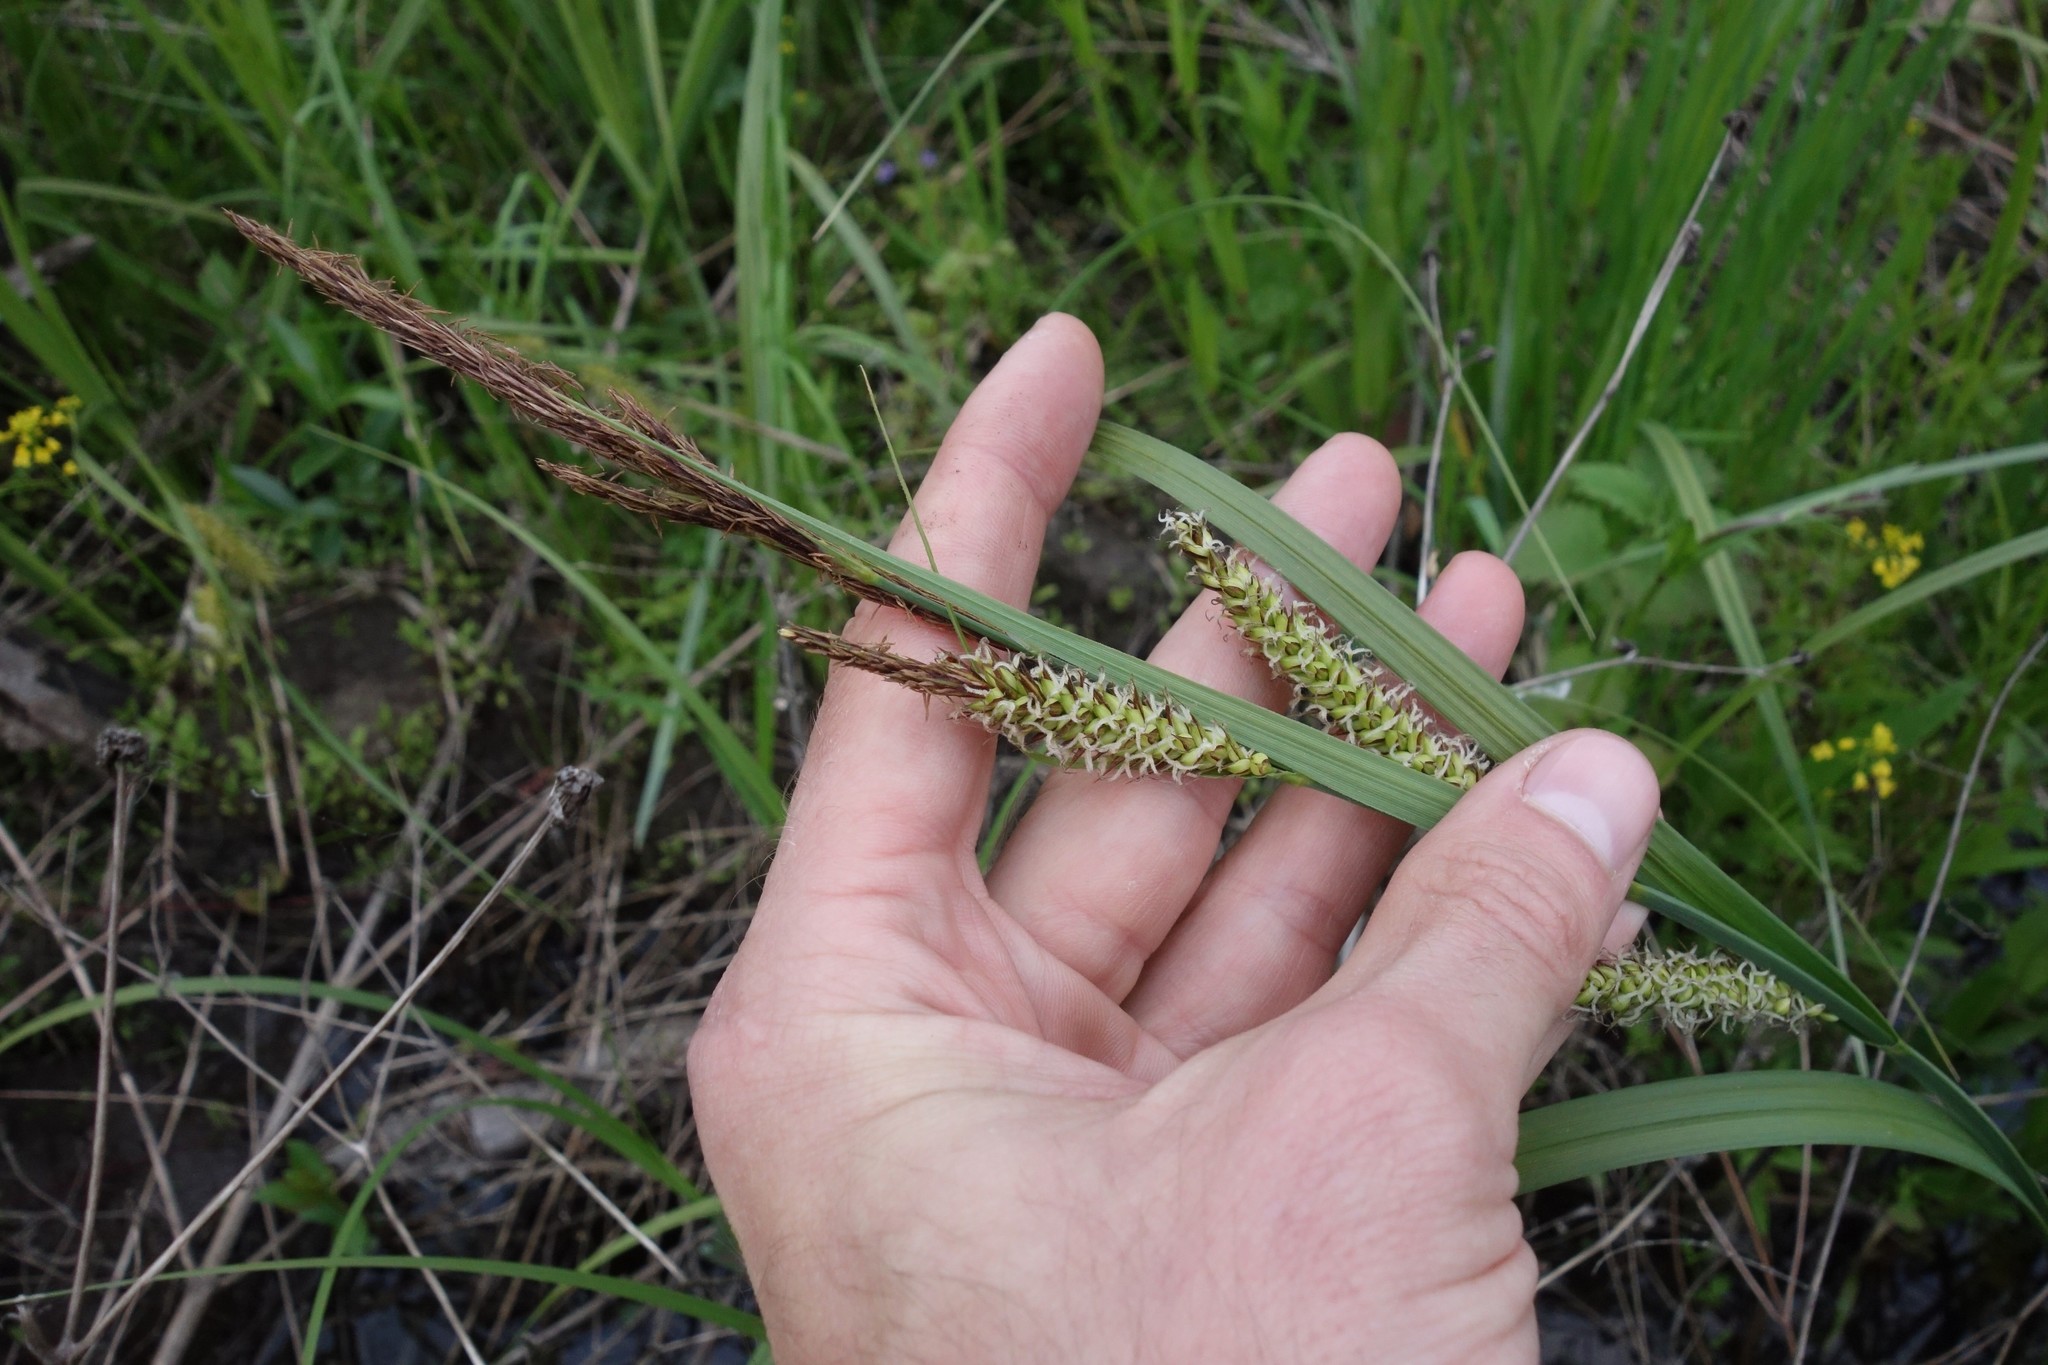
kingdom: Plantae
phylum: Tracheophyta
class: Liliopsida
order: Poales
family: Cyperaceae
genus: Carex
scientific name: Carex riparia
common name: Greater pond-sedge
